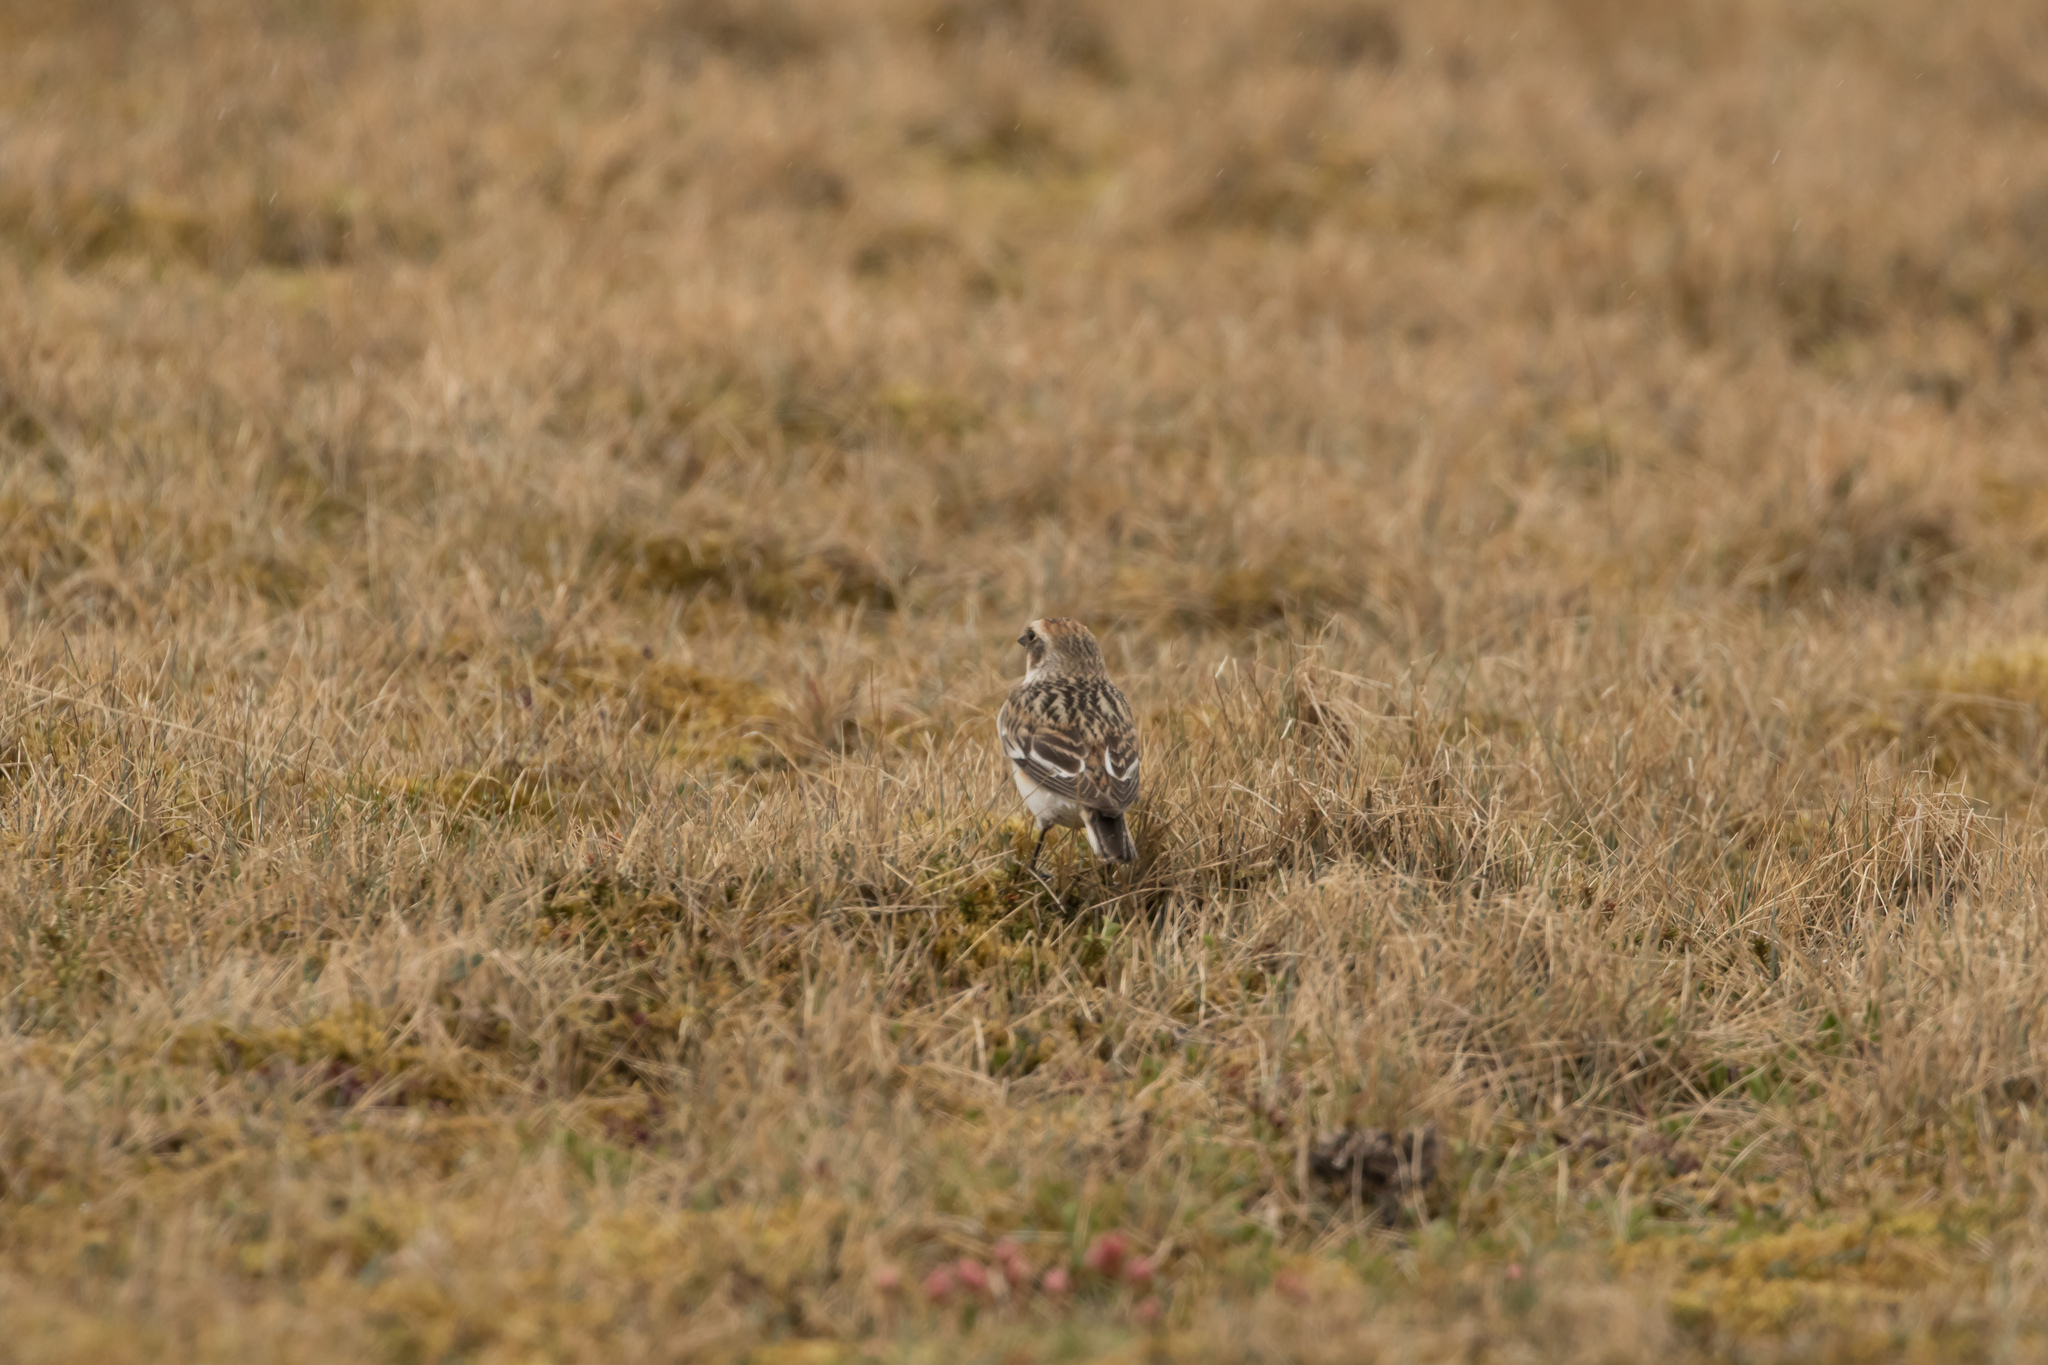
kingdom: Animalia
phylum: Chordata
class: Aves
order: Passeriformes
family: Calcariidae
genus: Plectrophenax
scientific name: Plectrophenax nivalis
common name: Snow bunting
